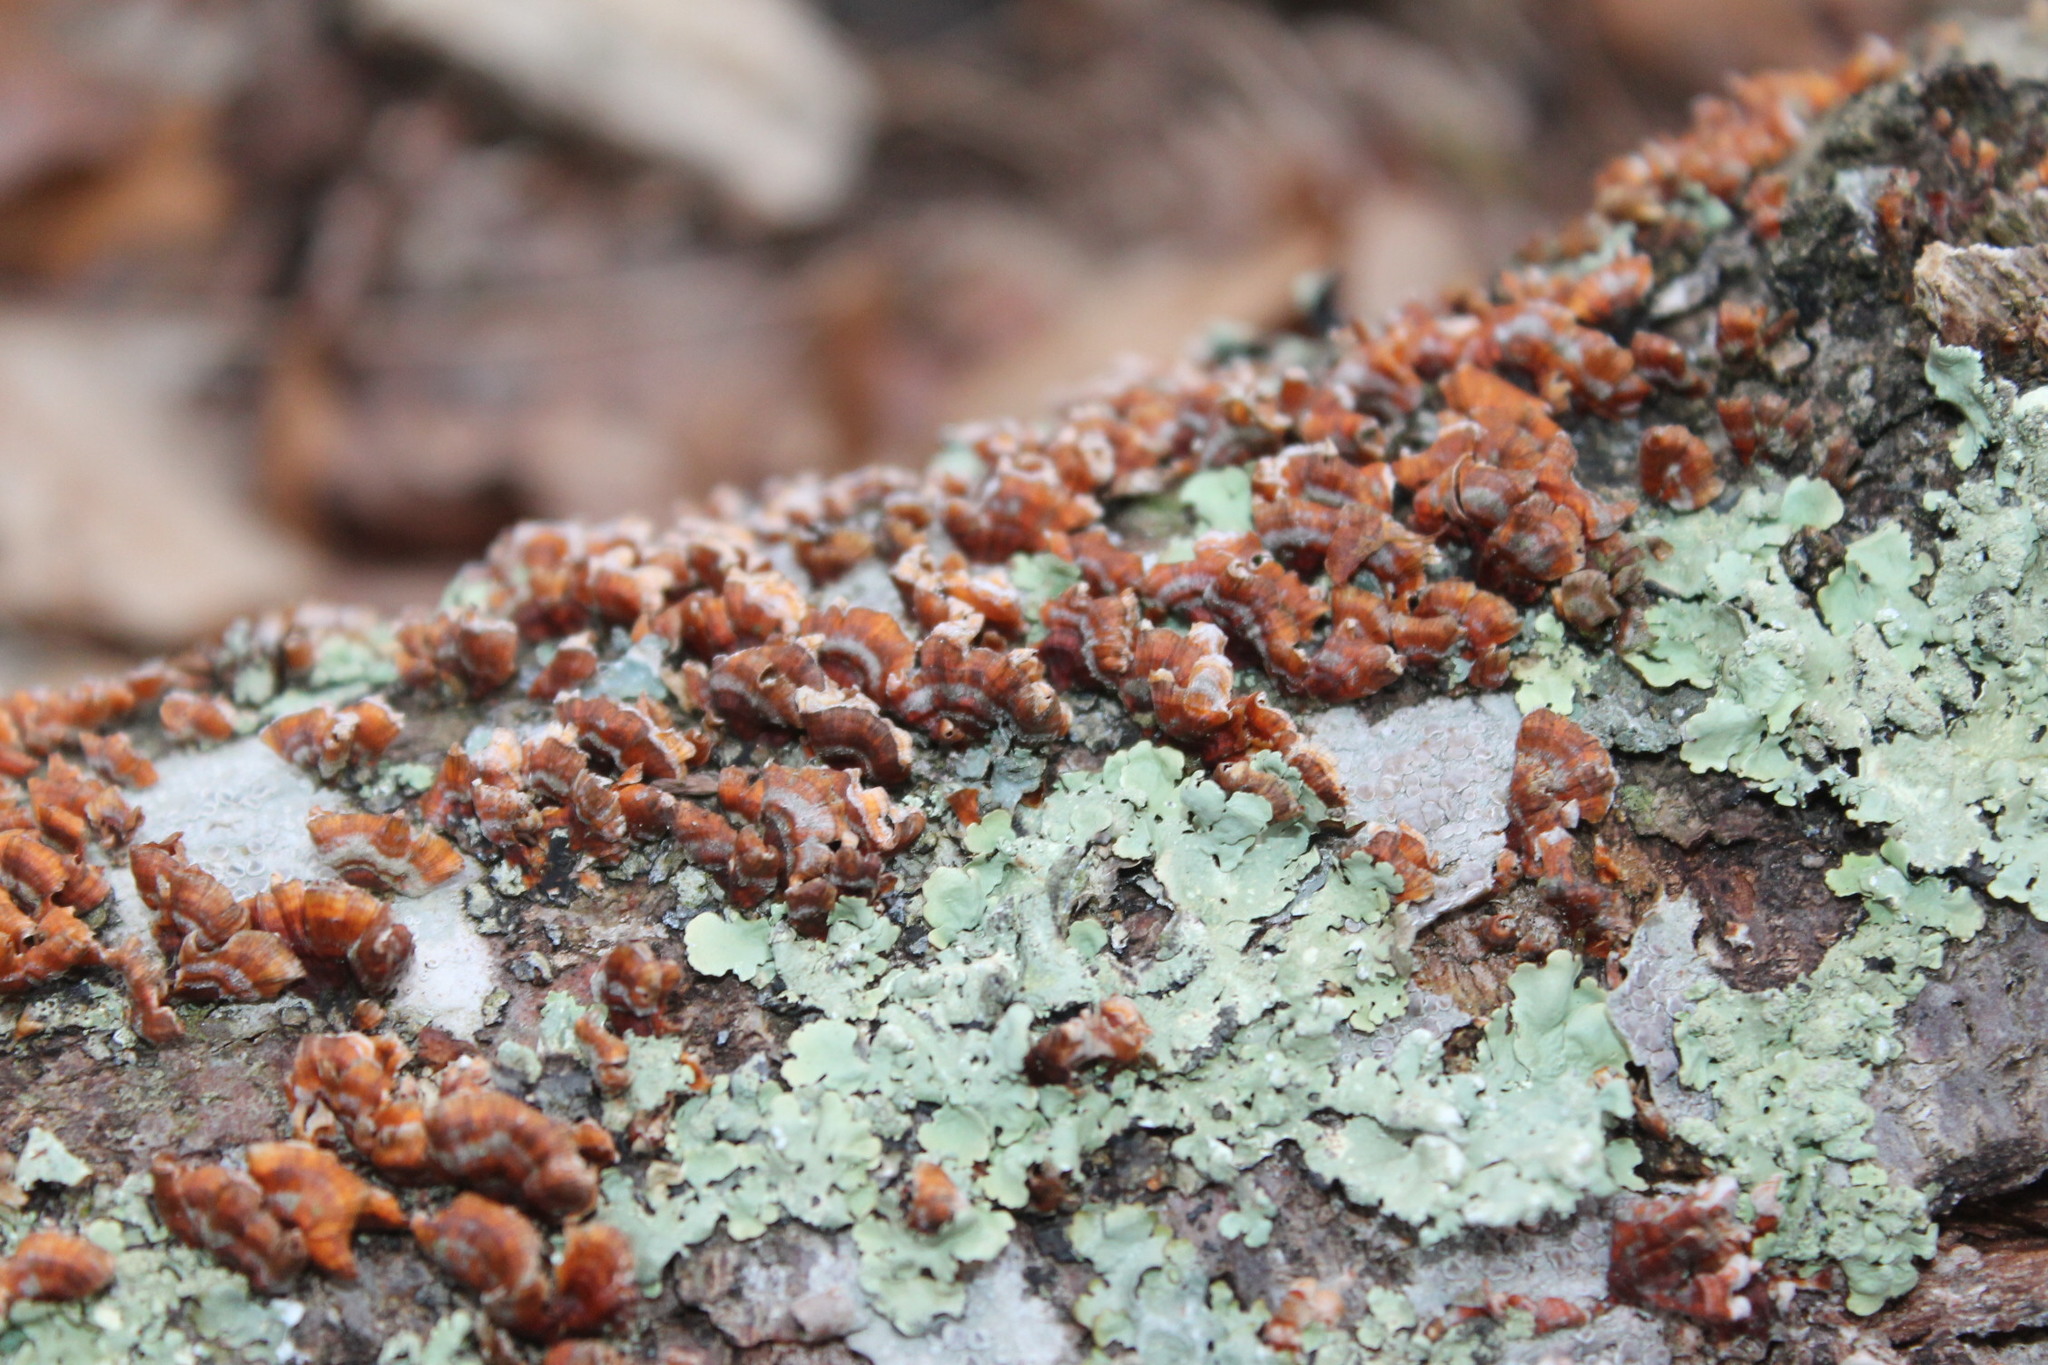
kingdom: Fungi
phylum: Basidiomycota
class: Agaricomycetes
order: Russulales
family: Stereaceae
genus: Stereum
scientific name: Stereum complicatum
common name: Crowded parchment
